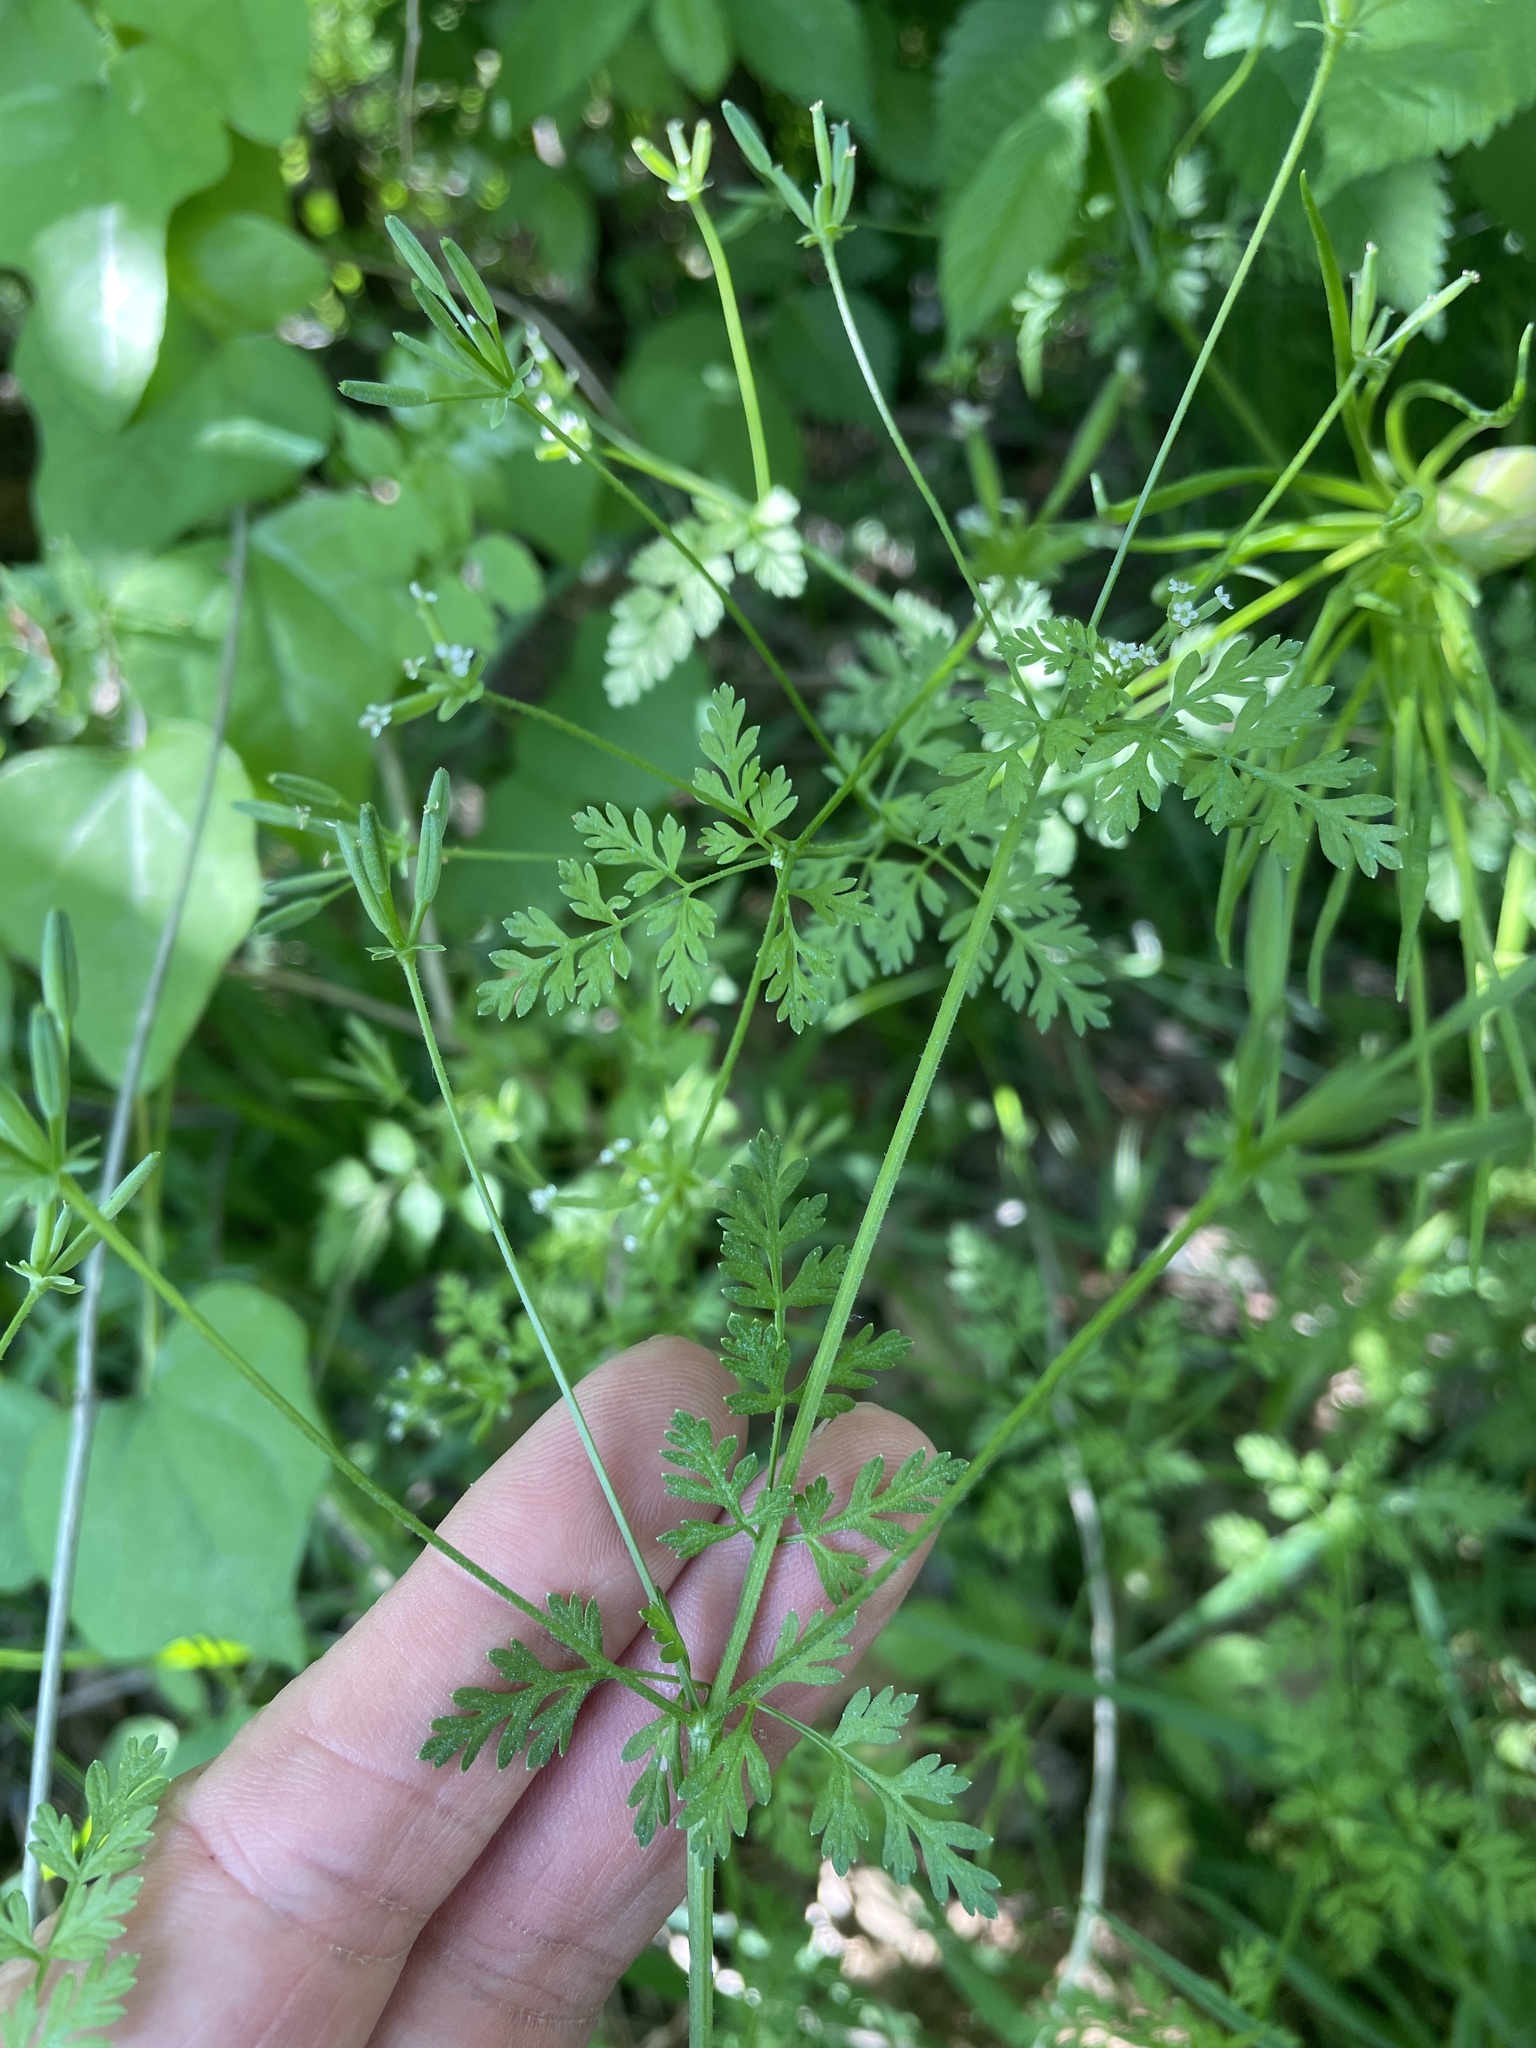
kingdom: Plantae
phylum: Tracheophyta
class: Magnoliopsida
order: Apiales
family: Apiaceae
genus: Chaerophyllum
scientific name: Chaerophyllum tainturieri
